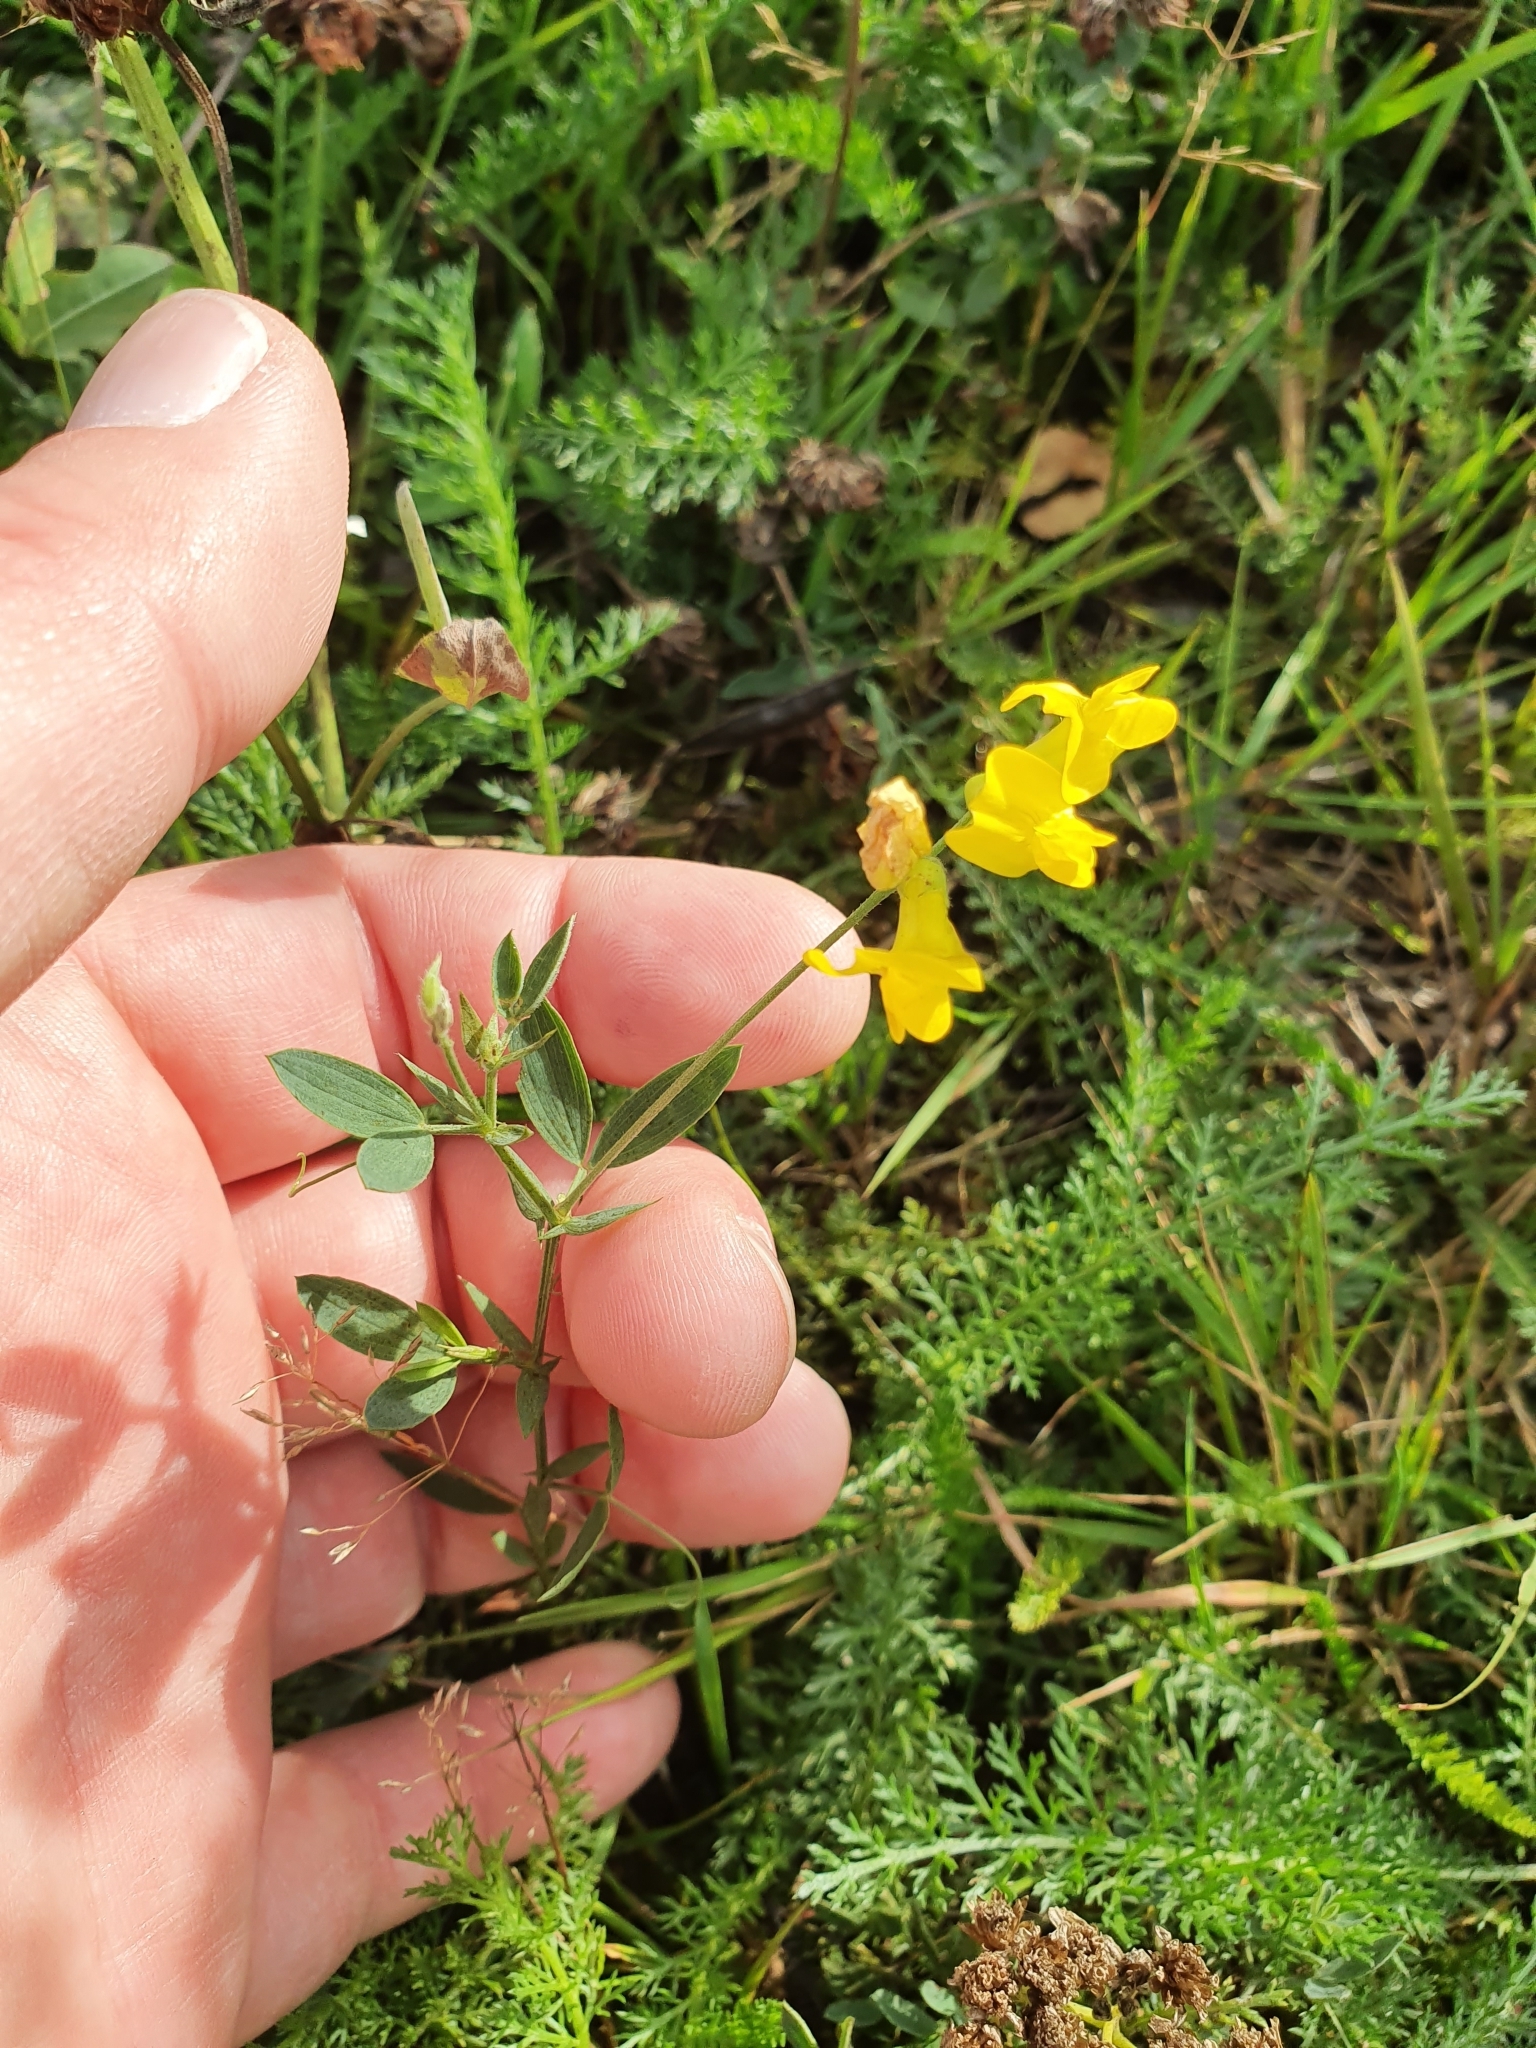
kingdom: Plantae
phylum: Tracheophyta
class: Magnoliopsida
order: Fabales
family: Fabaceae
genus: Lathyrus
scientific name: Lathyrus pratensis
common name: Meadow vetchling
